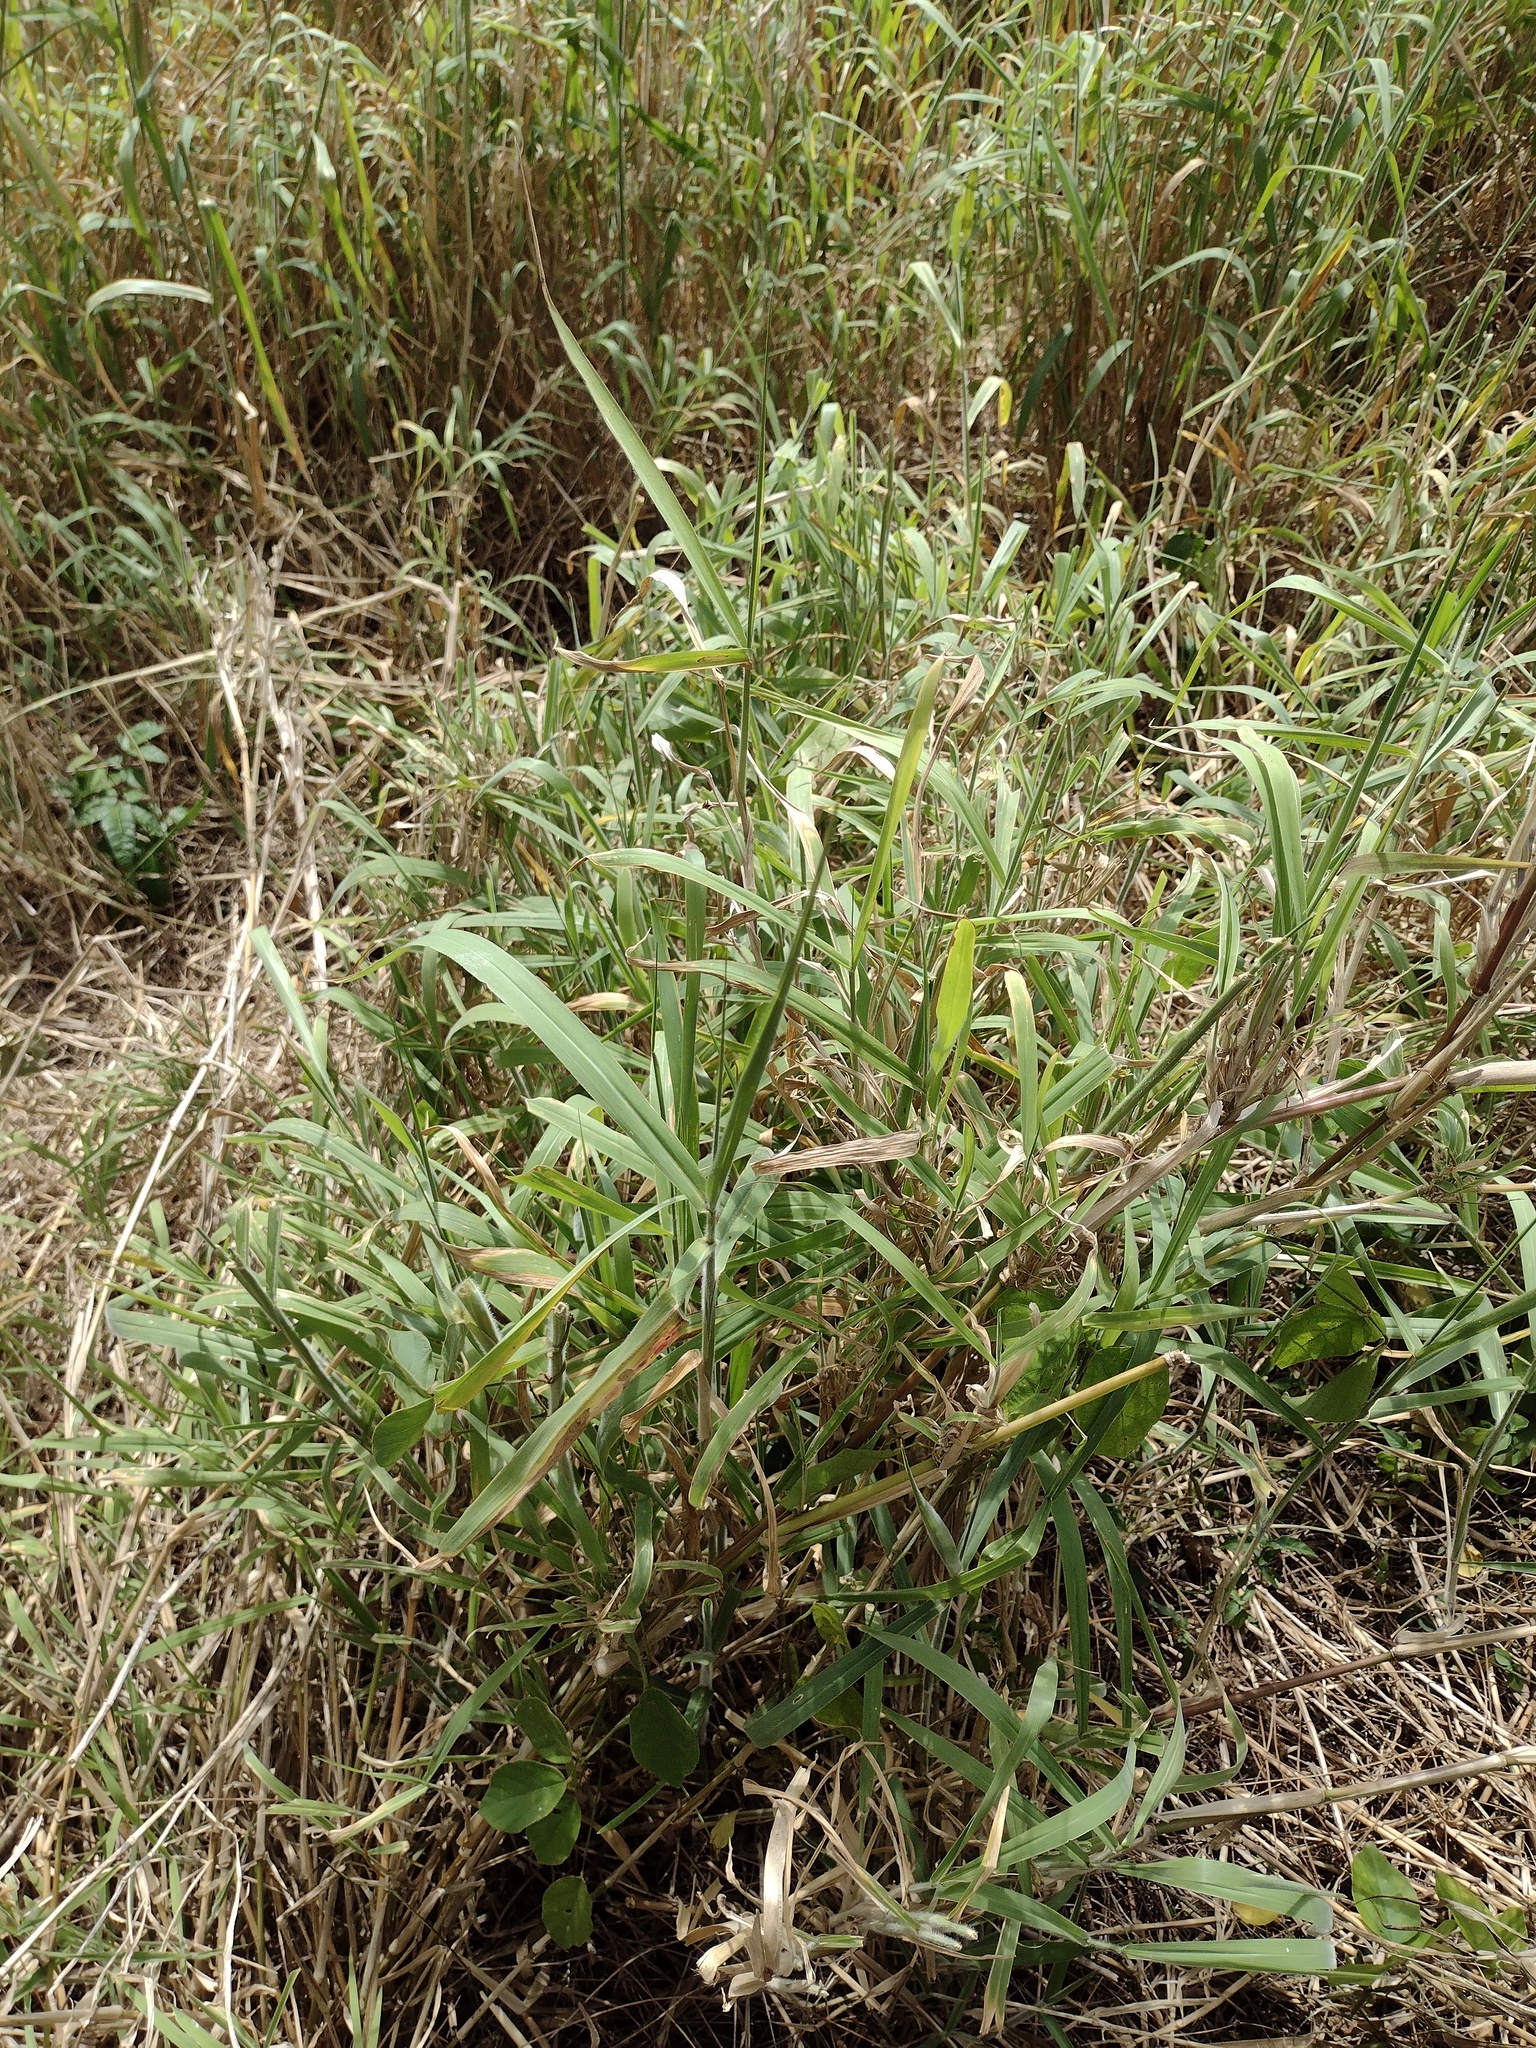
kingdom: Plantae
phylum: Tracheophyta
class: Liliopsida
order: Poales
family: Poaceae
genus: Urochloa
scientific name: Urochloa mutica
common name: Para grass
